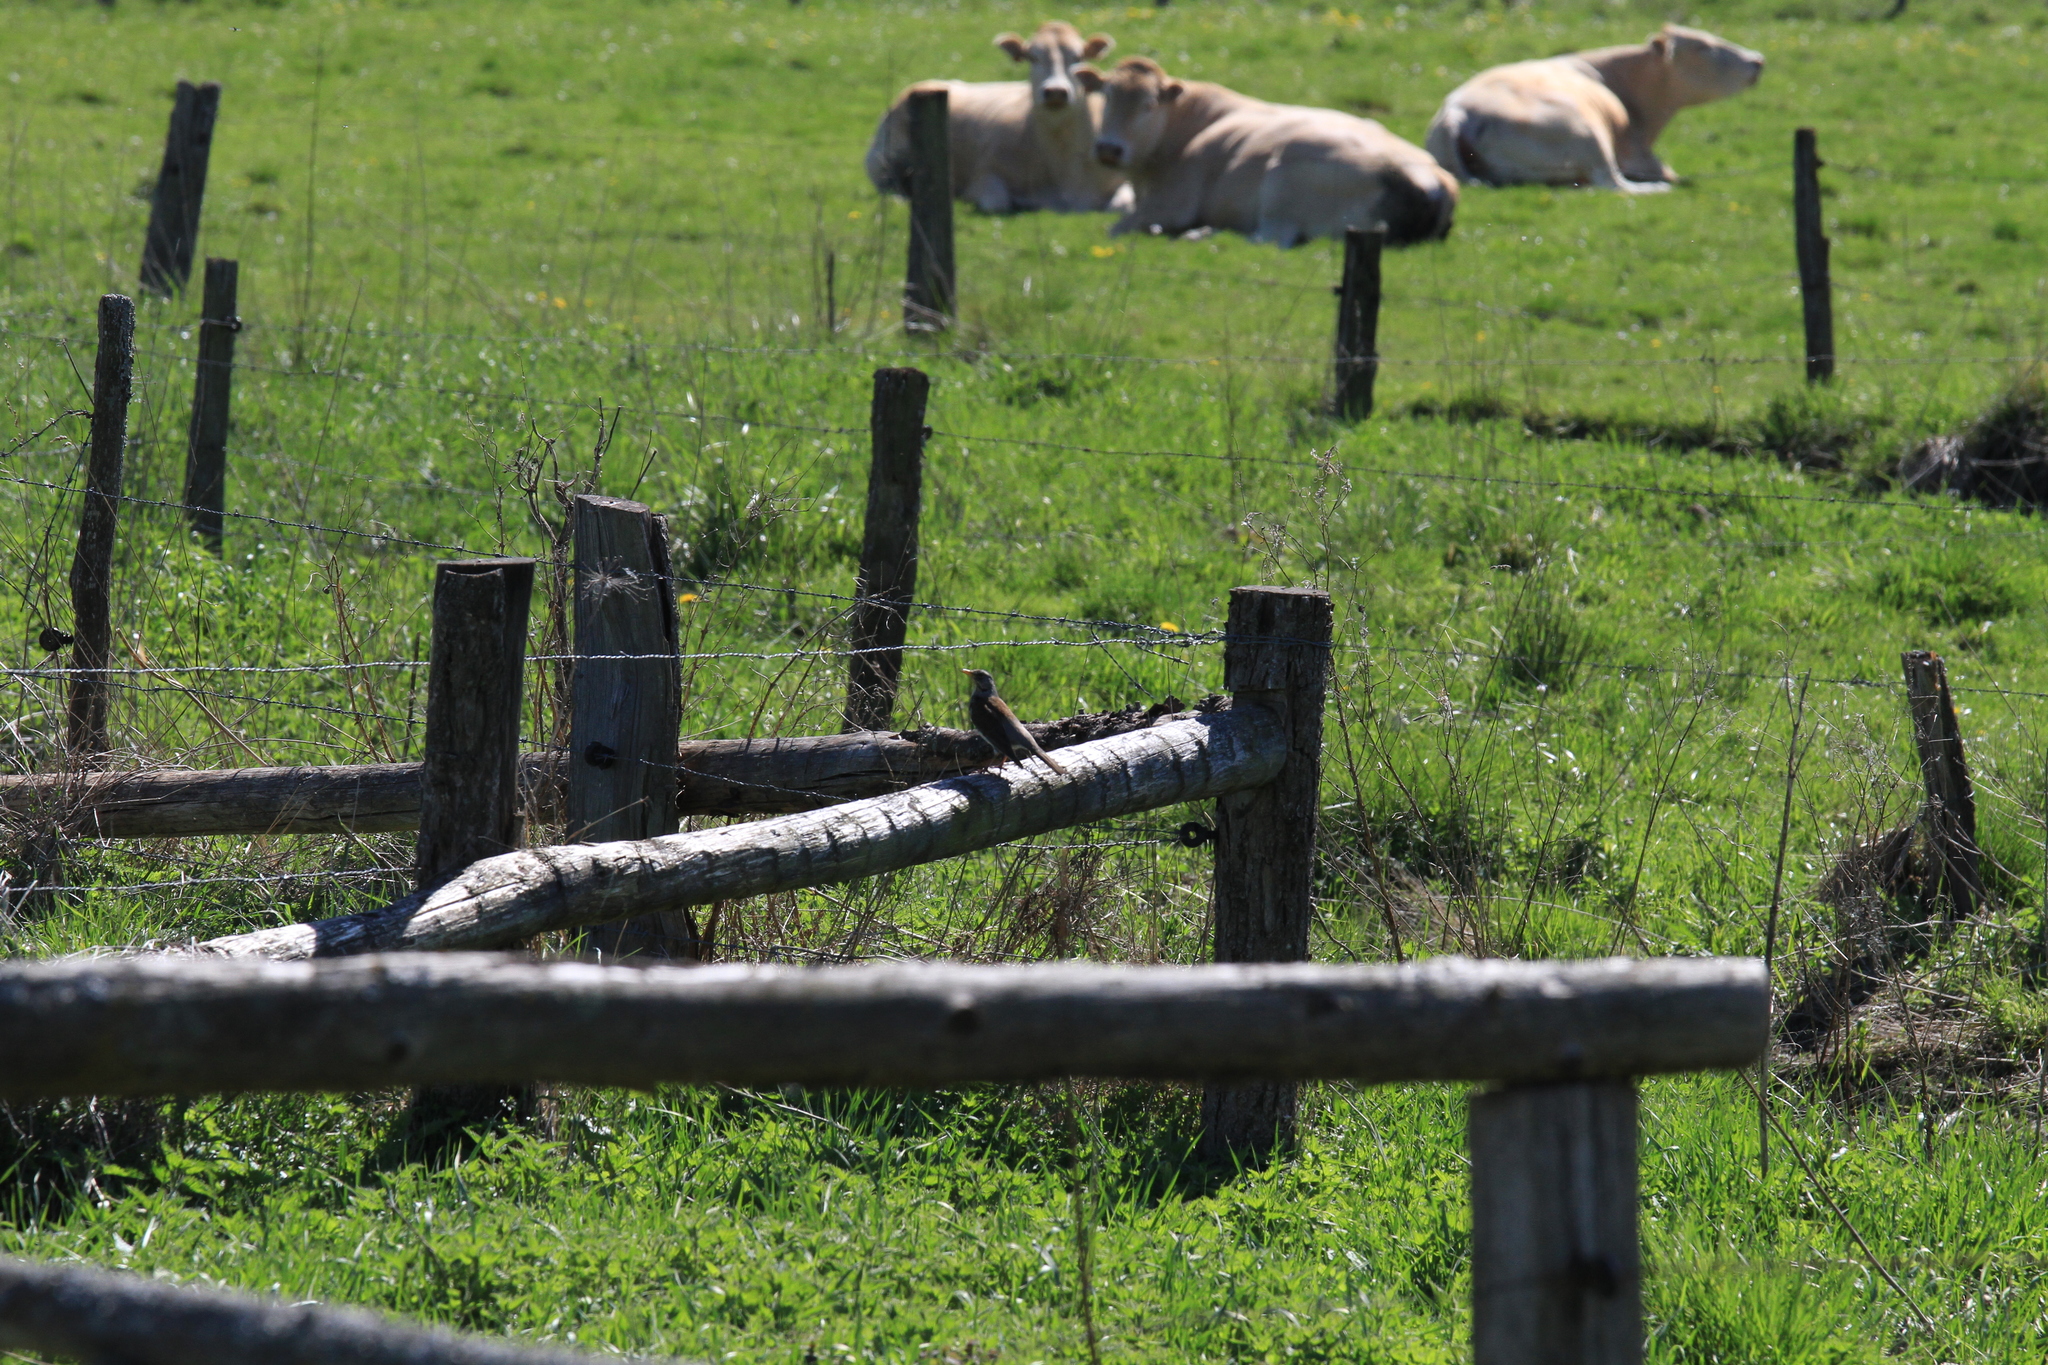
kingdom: Animalia
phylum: Chordata
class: Aves
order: Passeriformes
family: Turdidae
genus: Turdus
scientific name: Turdus pilaris
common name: Fieldfare
